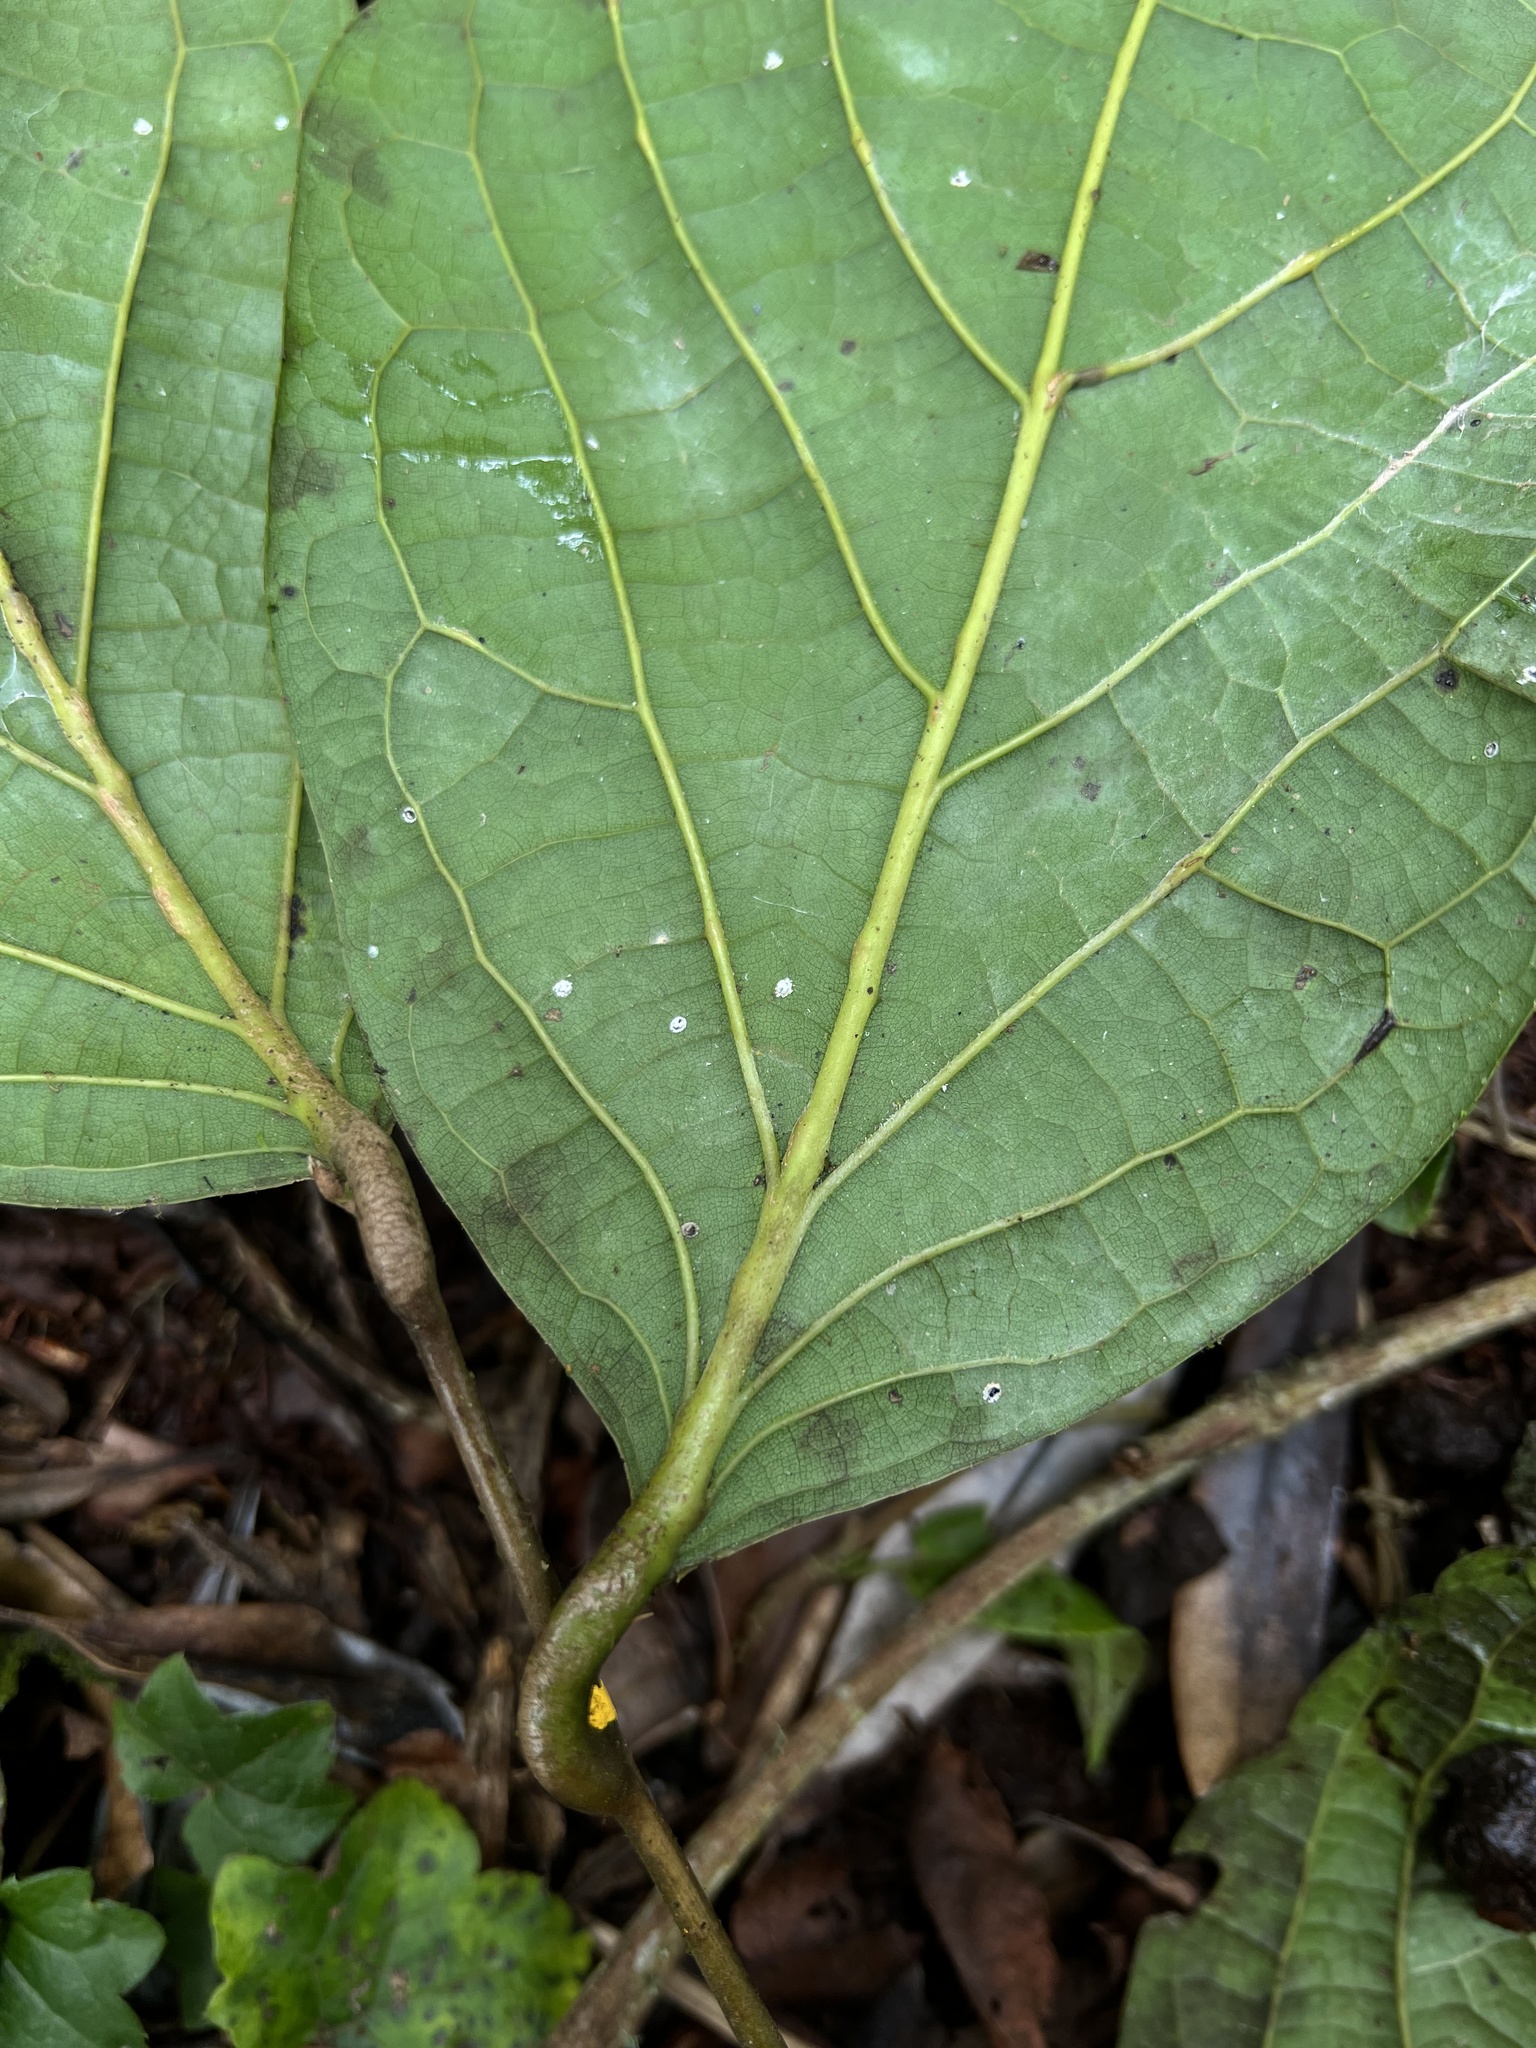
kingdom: Plantae
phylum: Tracheophyta
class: Magnoliopsida
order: Laurales
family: Lauraceae
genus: Ocotea
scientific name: Ocotea pedicellata
